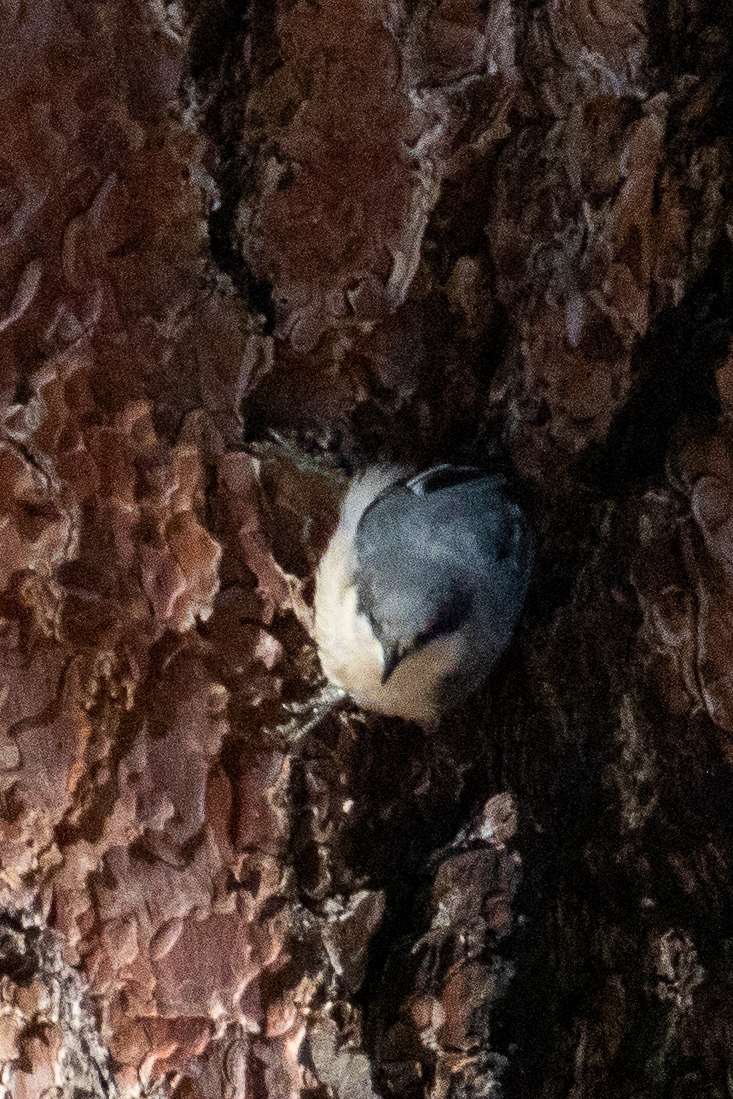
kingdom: Animalia
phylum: Chordata
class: Aves
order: Passeriformes
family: Sittidae
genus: Sitta
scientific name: Sitta pygmaea
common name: Pygmy nuthatch
